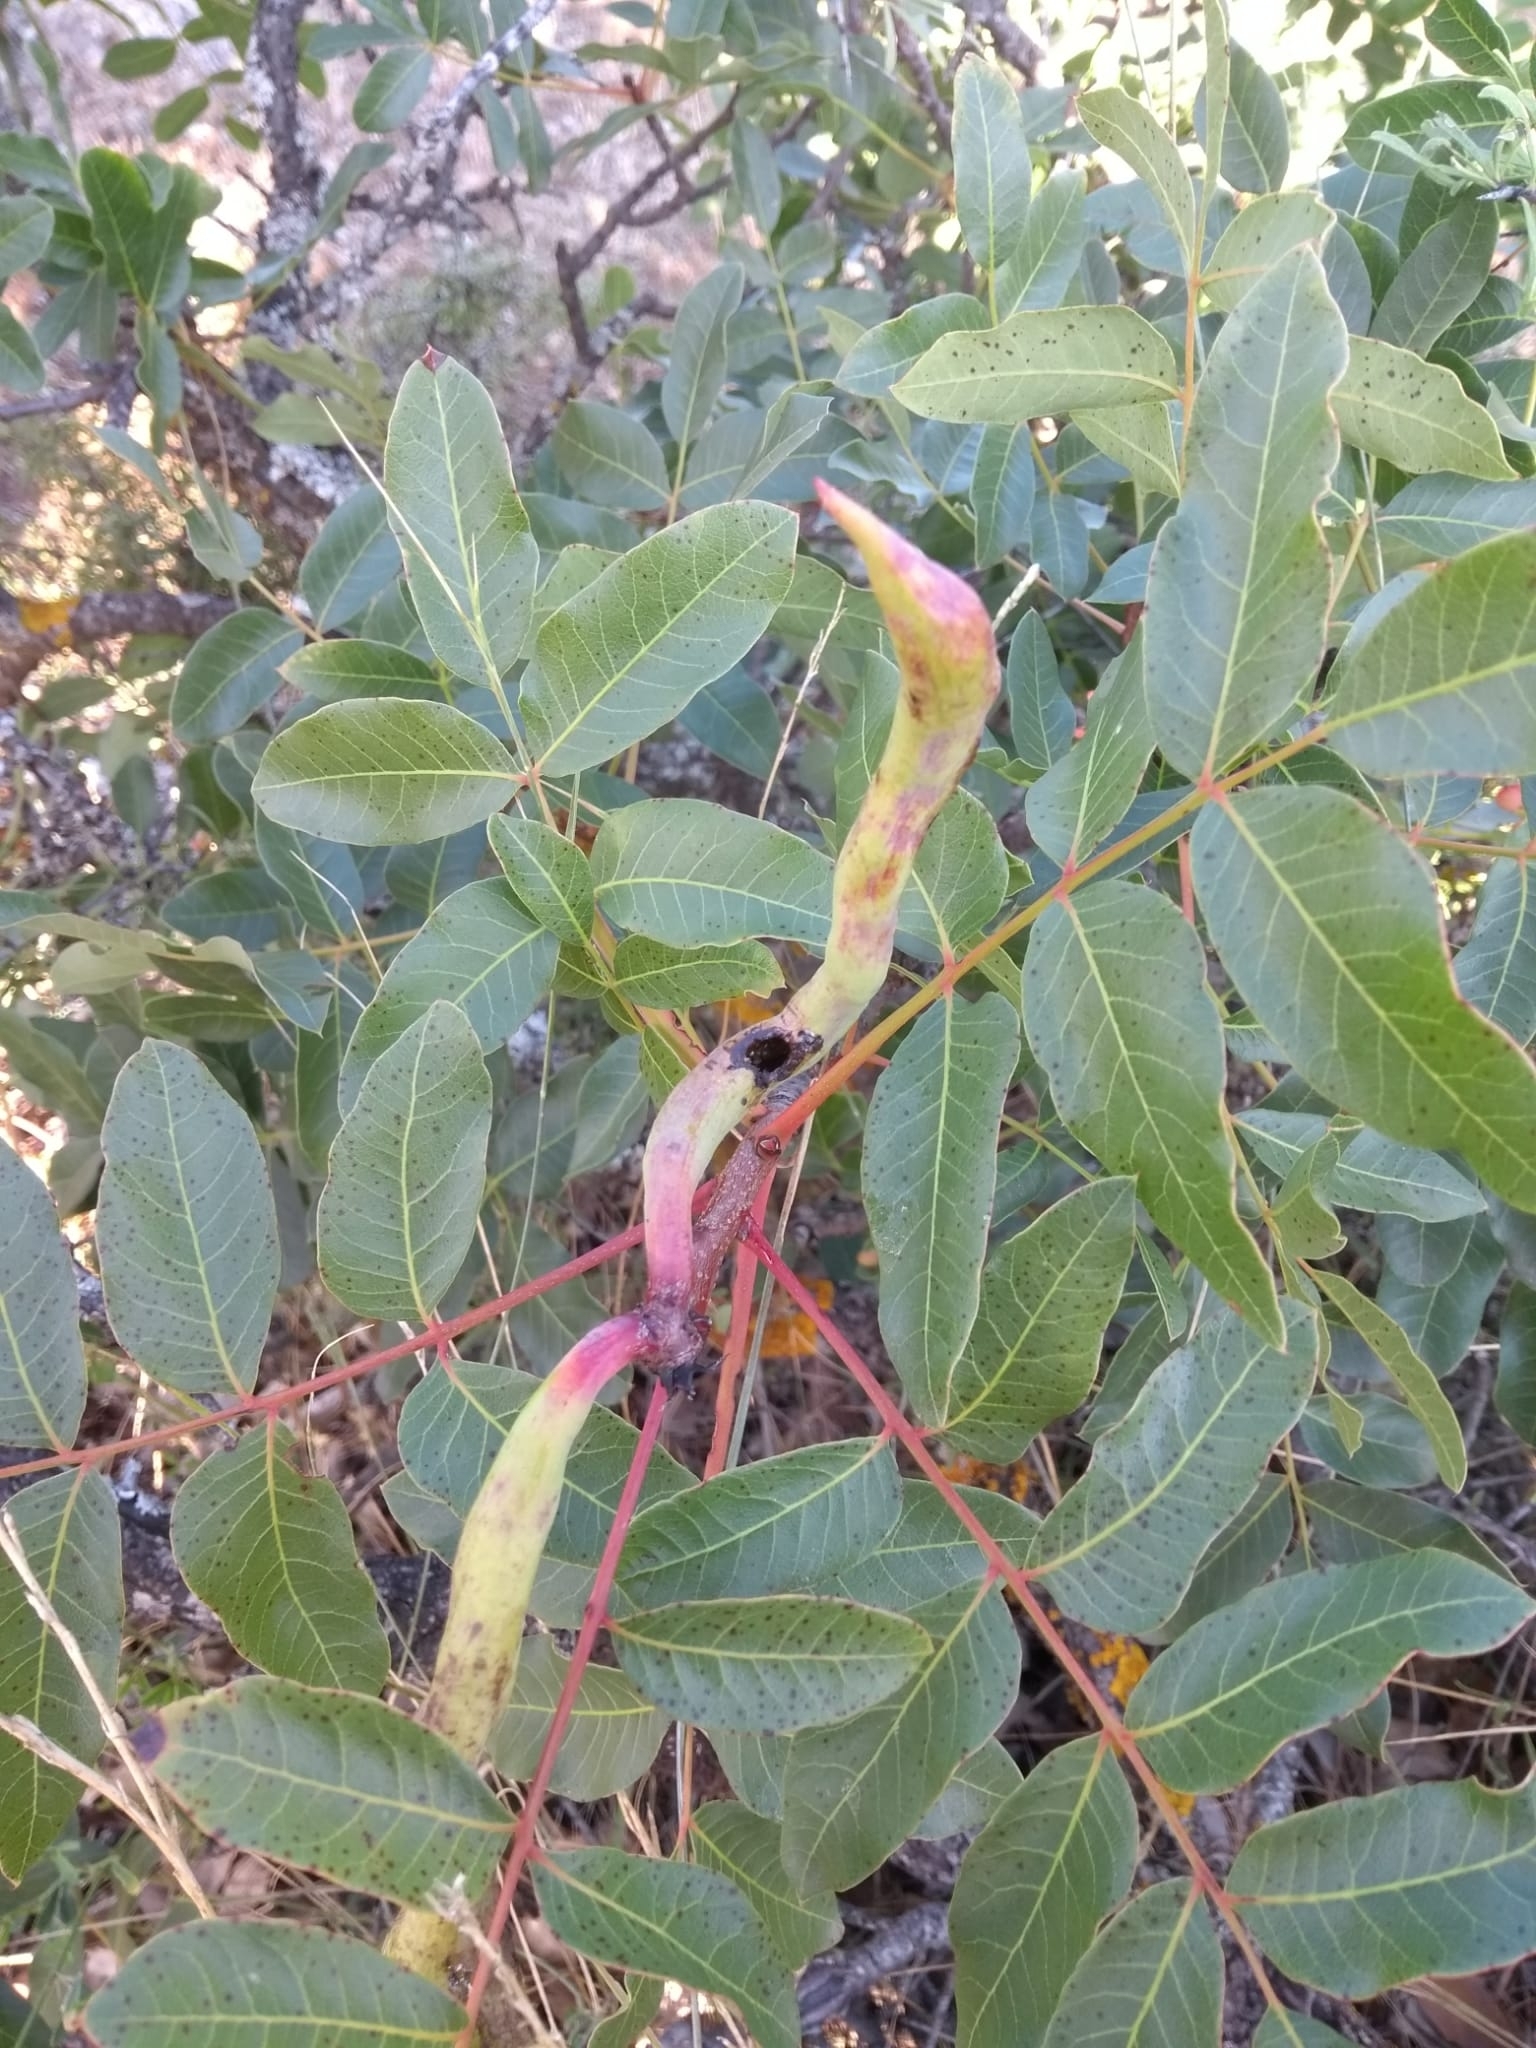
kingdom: Animalia
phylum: Arthropoda
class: Insecta
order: Hemiptera
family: Aphididae
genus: Baizongia
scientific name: Baizongia pistaciae
